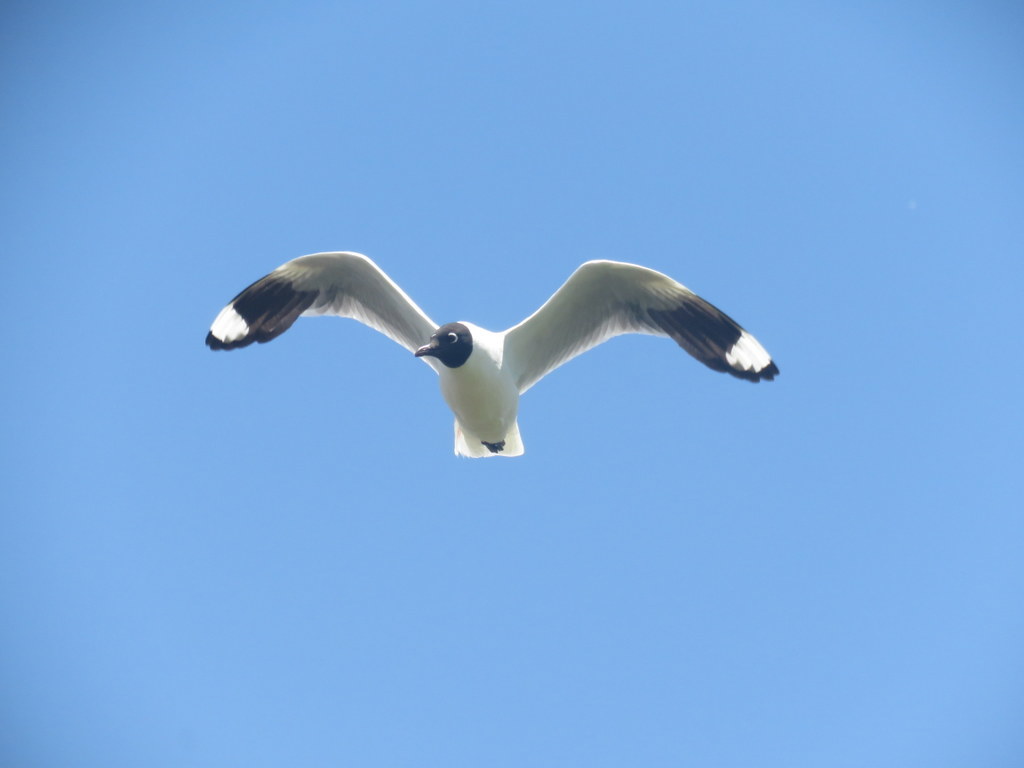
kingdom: Animalia
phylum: Chordata
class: Aves
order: Charadriiformes
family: Laridae
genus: Chroicocephalus
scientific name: Chroicocephalus serranus
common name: Andean gull
